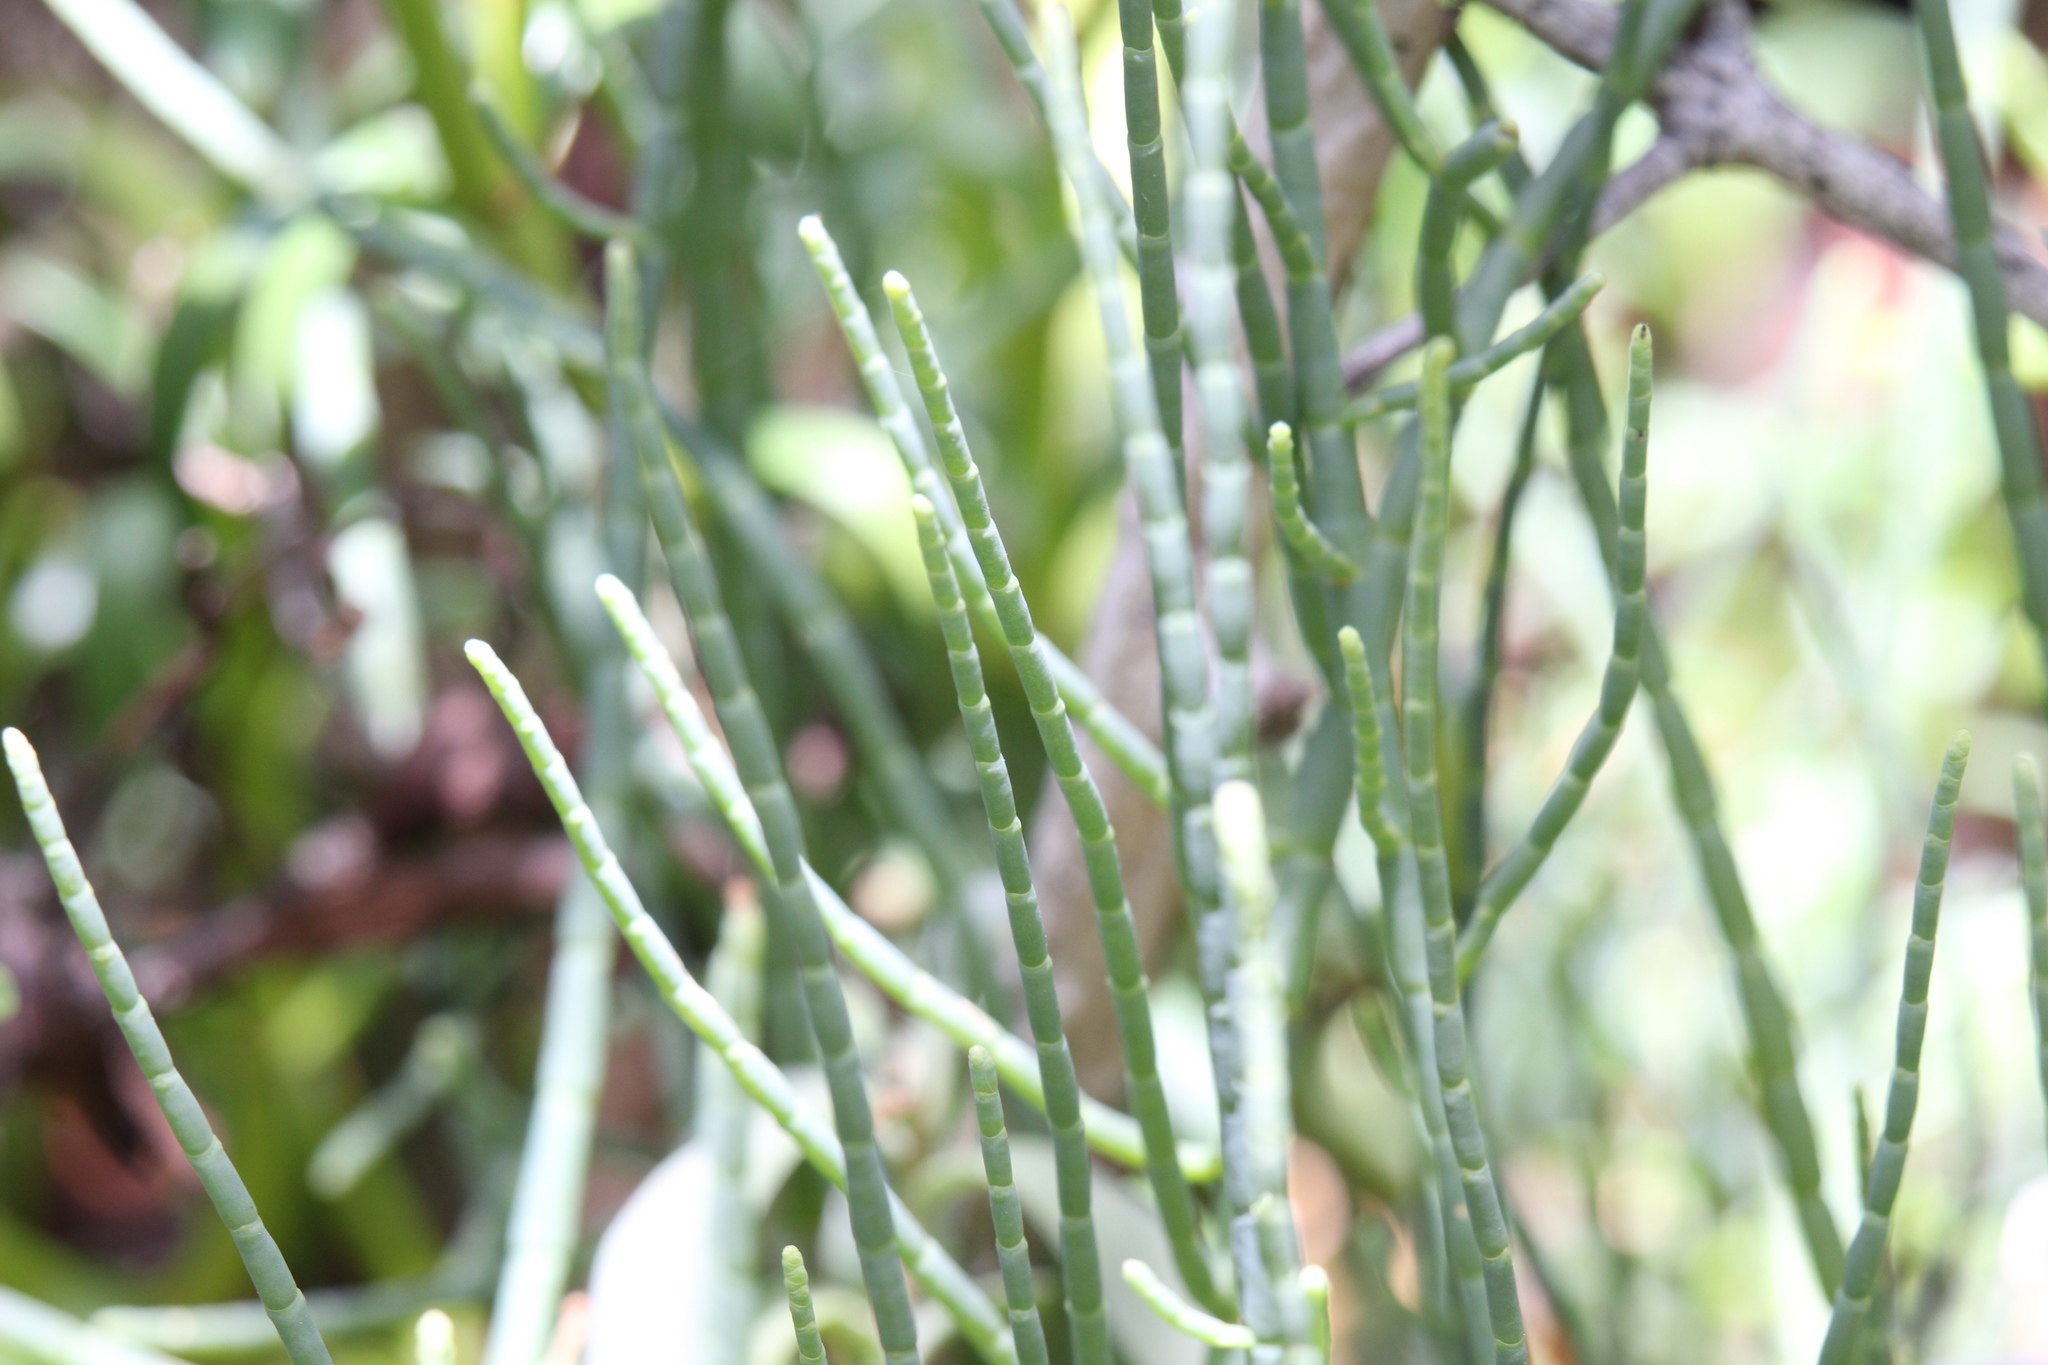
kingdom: Plantae
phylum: Tracheophyta
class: Magnoliopsida
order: Caryophyllales
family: Amaranthaceae
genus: Salicornia
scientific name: Salicornia ambigua
